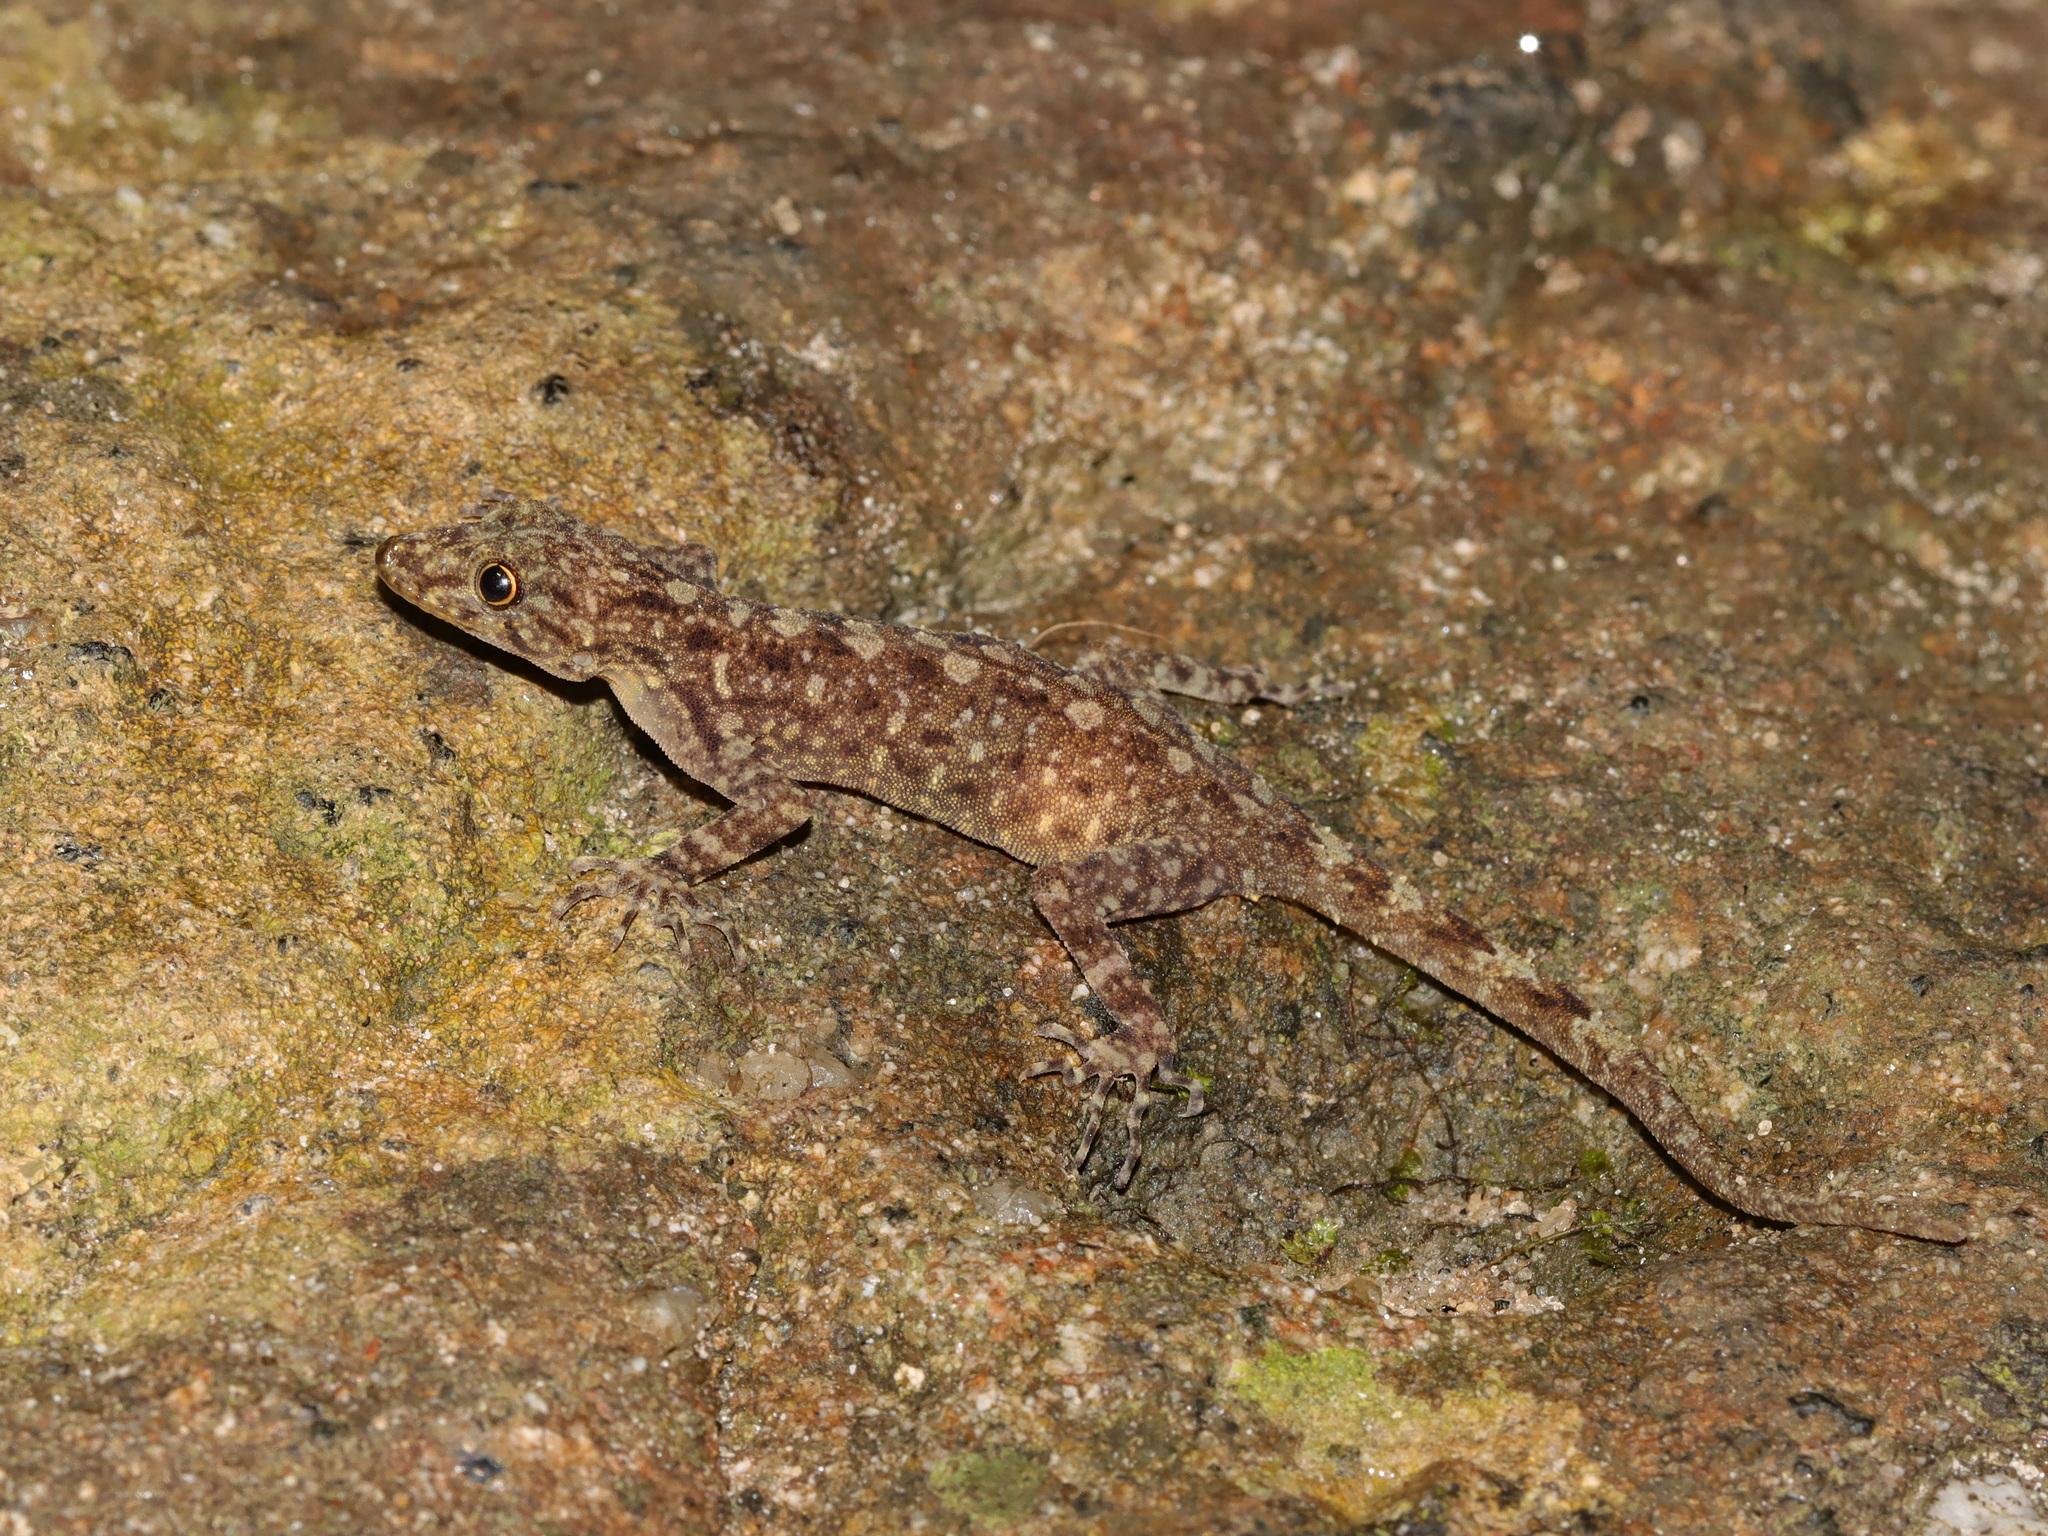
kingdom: Animalia
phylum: Chordata
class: Squamata
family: Gekkonidae
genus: Cnemaspis
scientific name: Cnemaspis adangrawi
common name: Adang-rawi rock gecko
